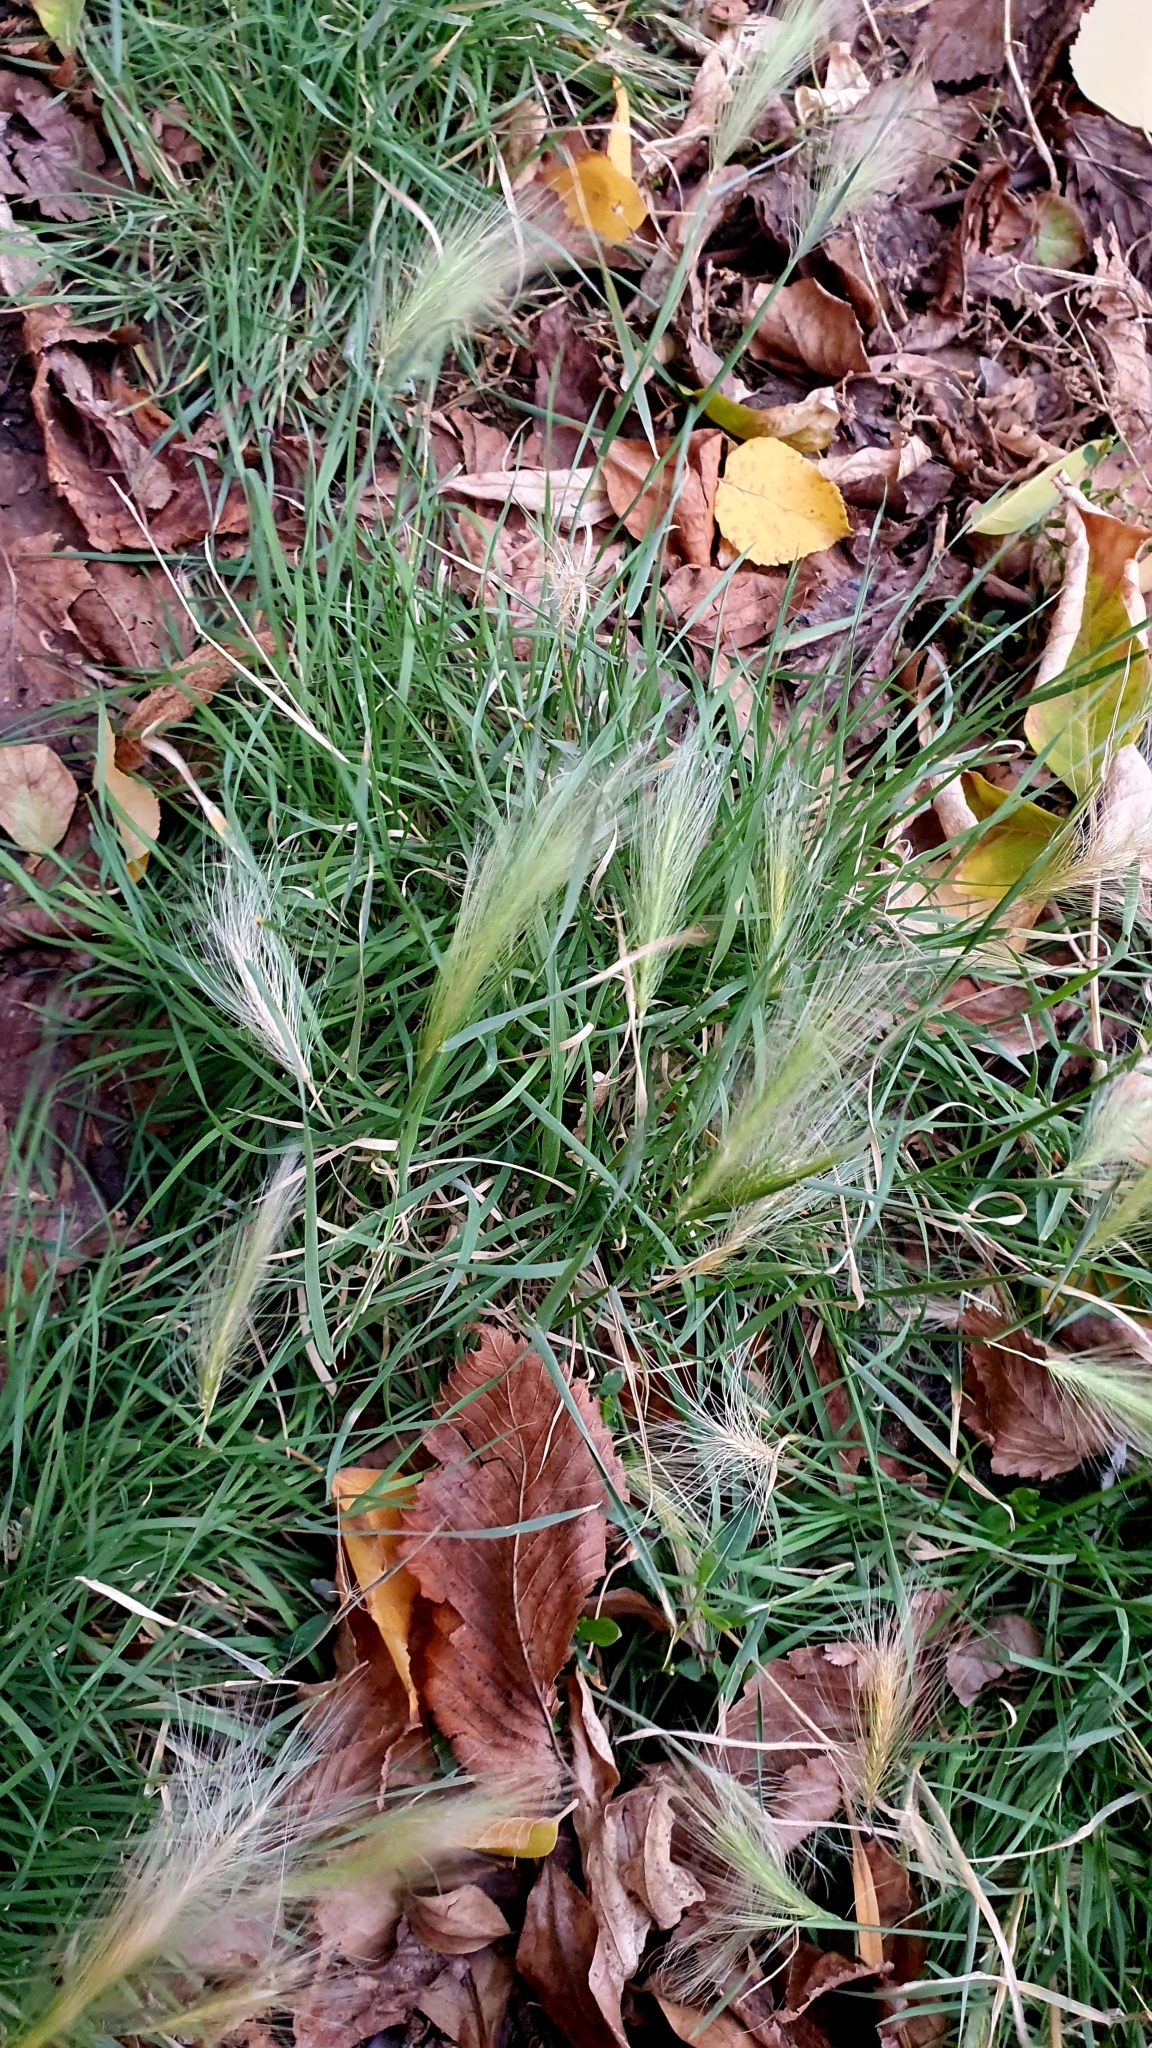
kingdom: Plantae
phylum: Tracheophyta
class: Liliopsida
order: Poales
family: Poaceae
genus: Hordeum
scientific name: Hordeum jubatum
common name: Foxtail barley
